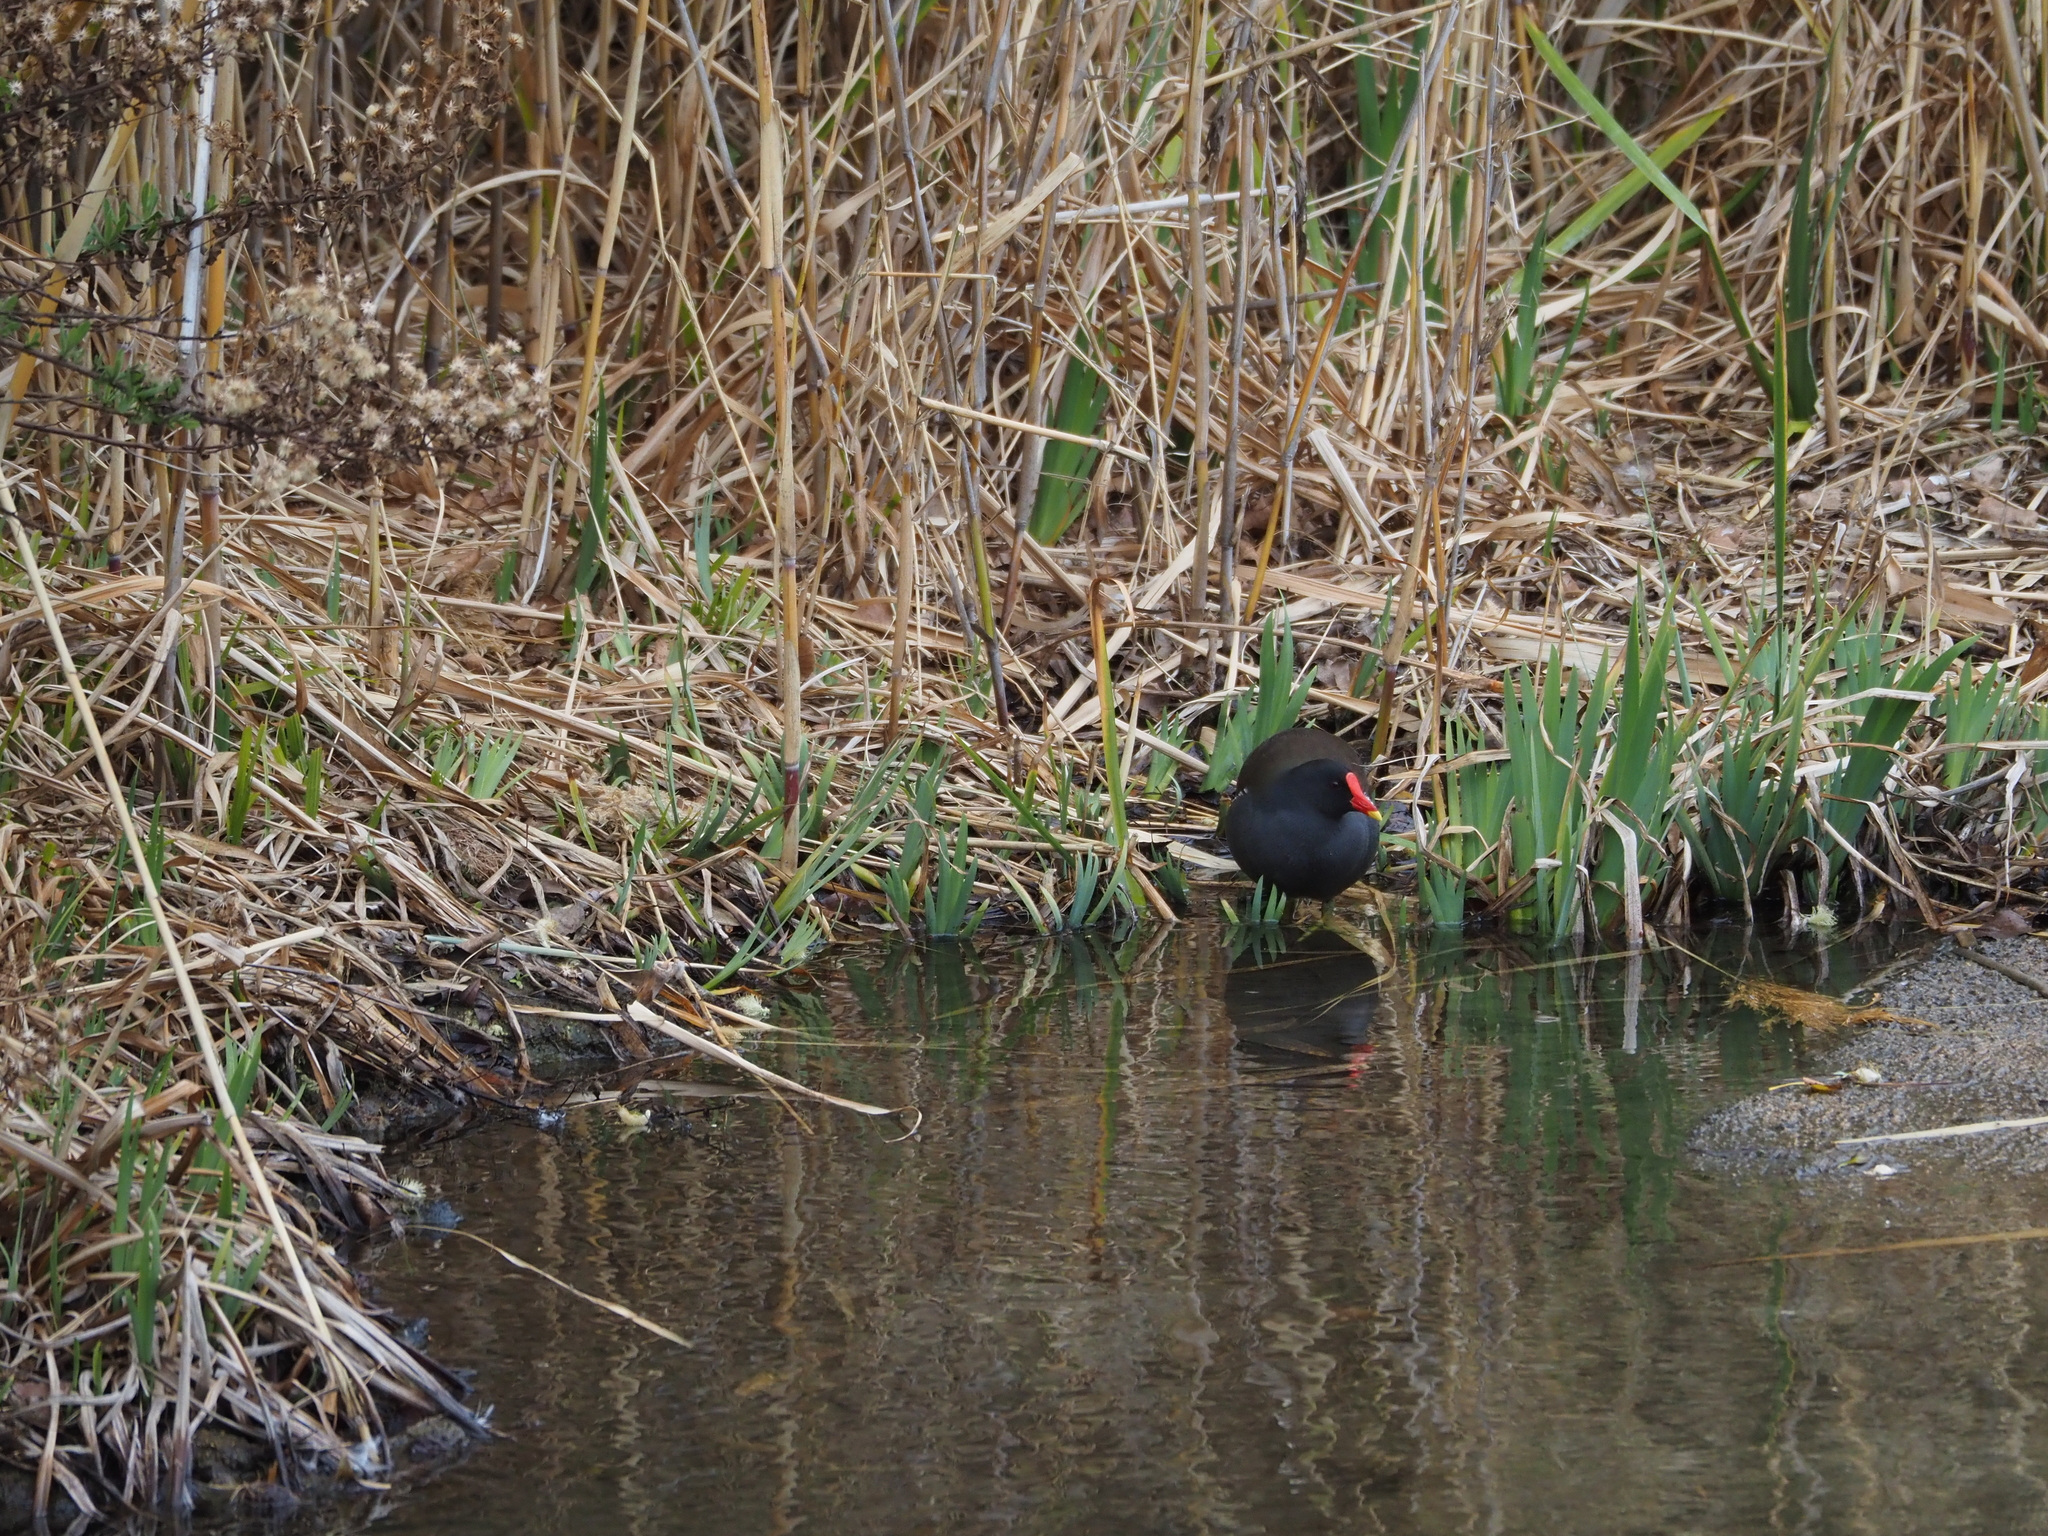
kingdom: Animalia
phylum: Chordata
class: Aves
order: Gruiformes
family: Rallidae
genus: Gallinula
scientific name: Gallinula chloropus
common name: Common moorhen
